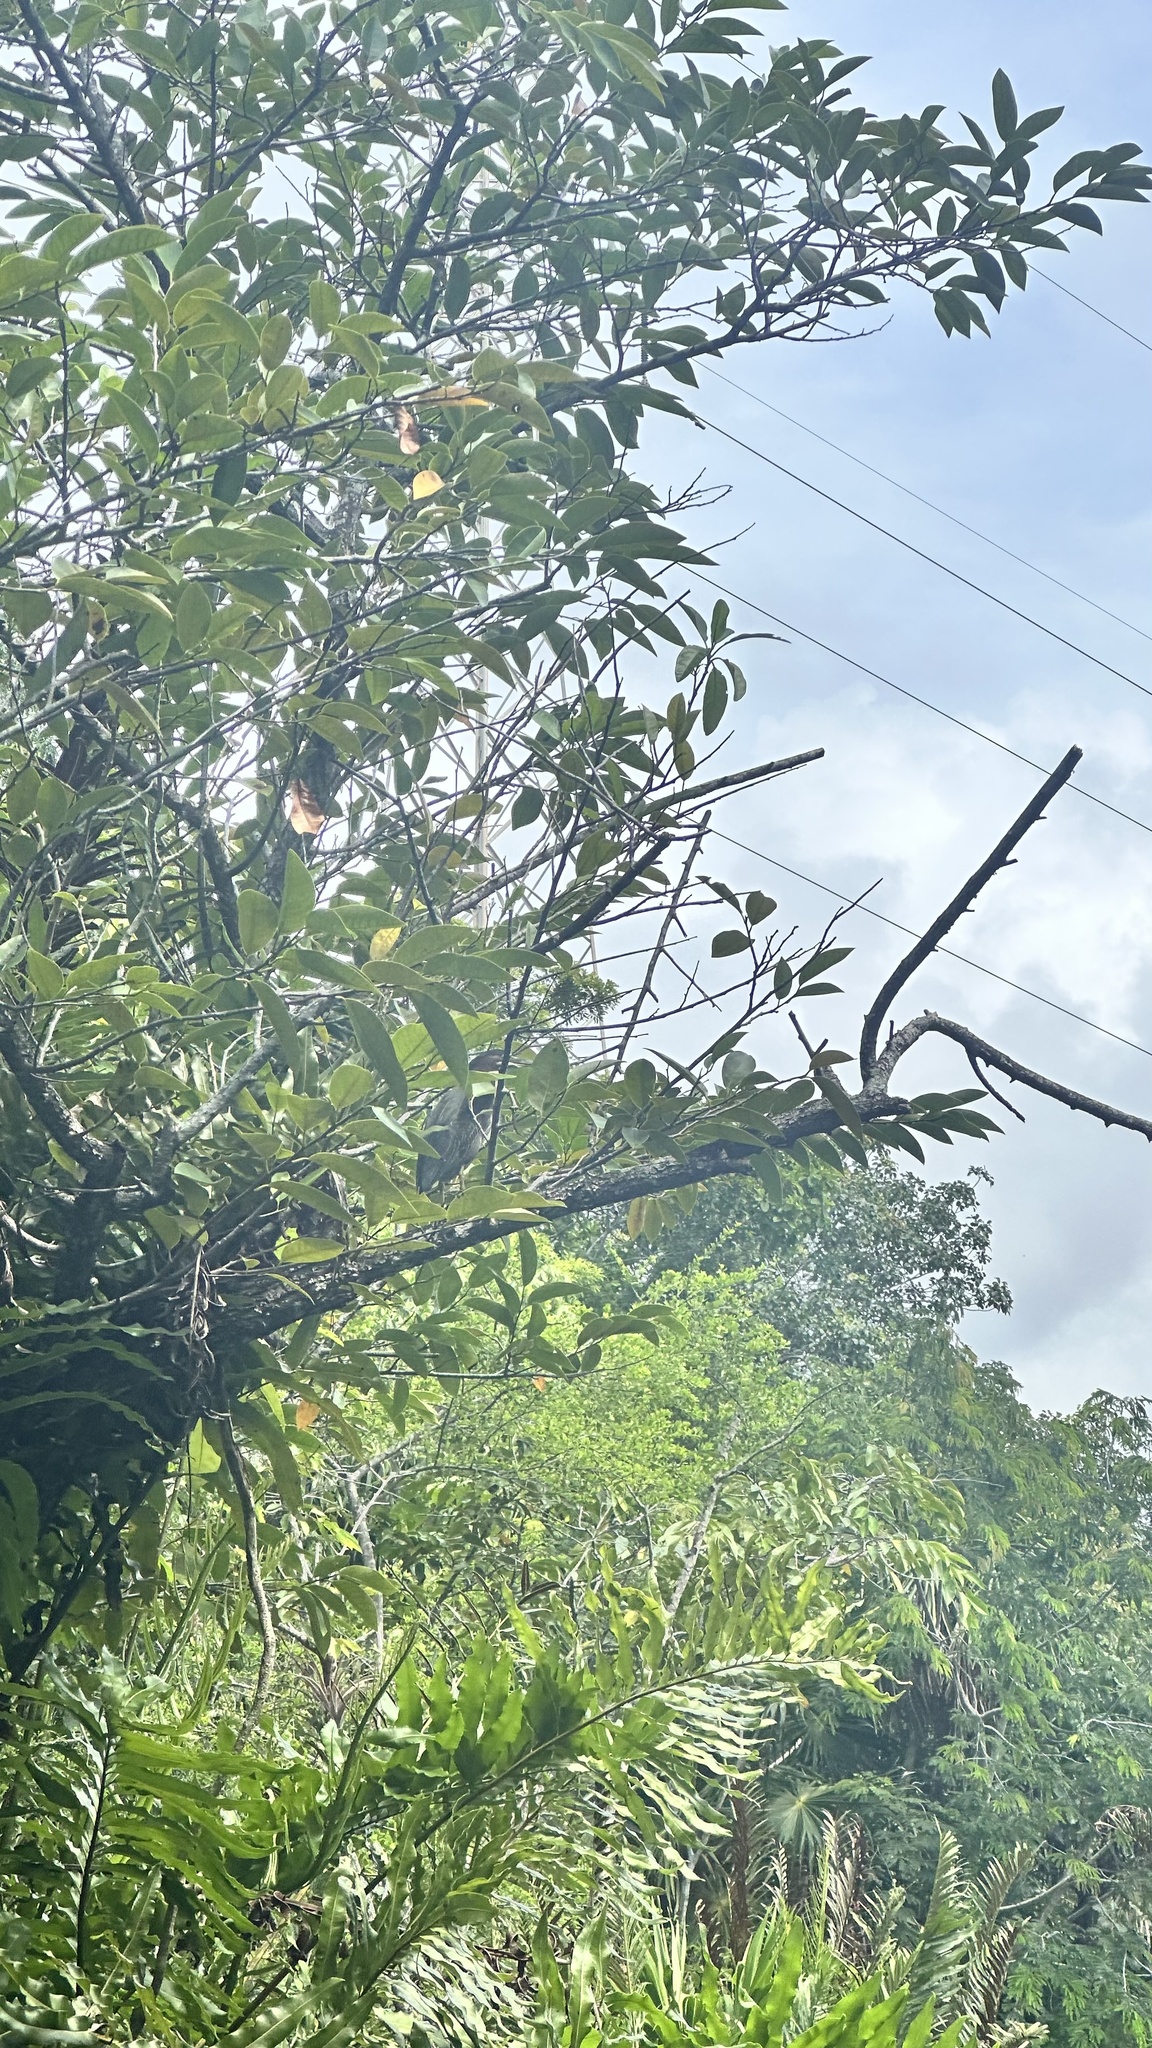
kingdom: Animalia
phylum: Chordata
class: Aves
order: Pelecaniformes
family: Ardeidae
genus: Butorides
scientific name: Butorides virescens
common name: Green heron
